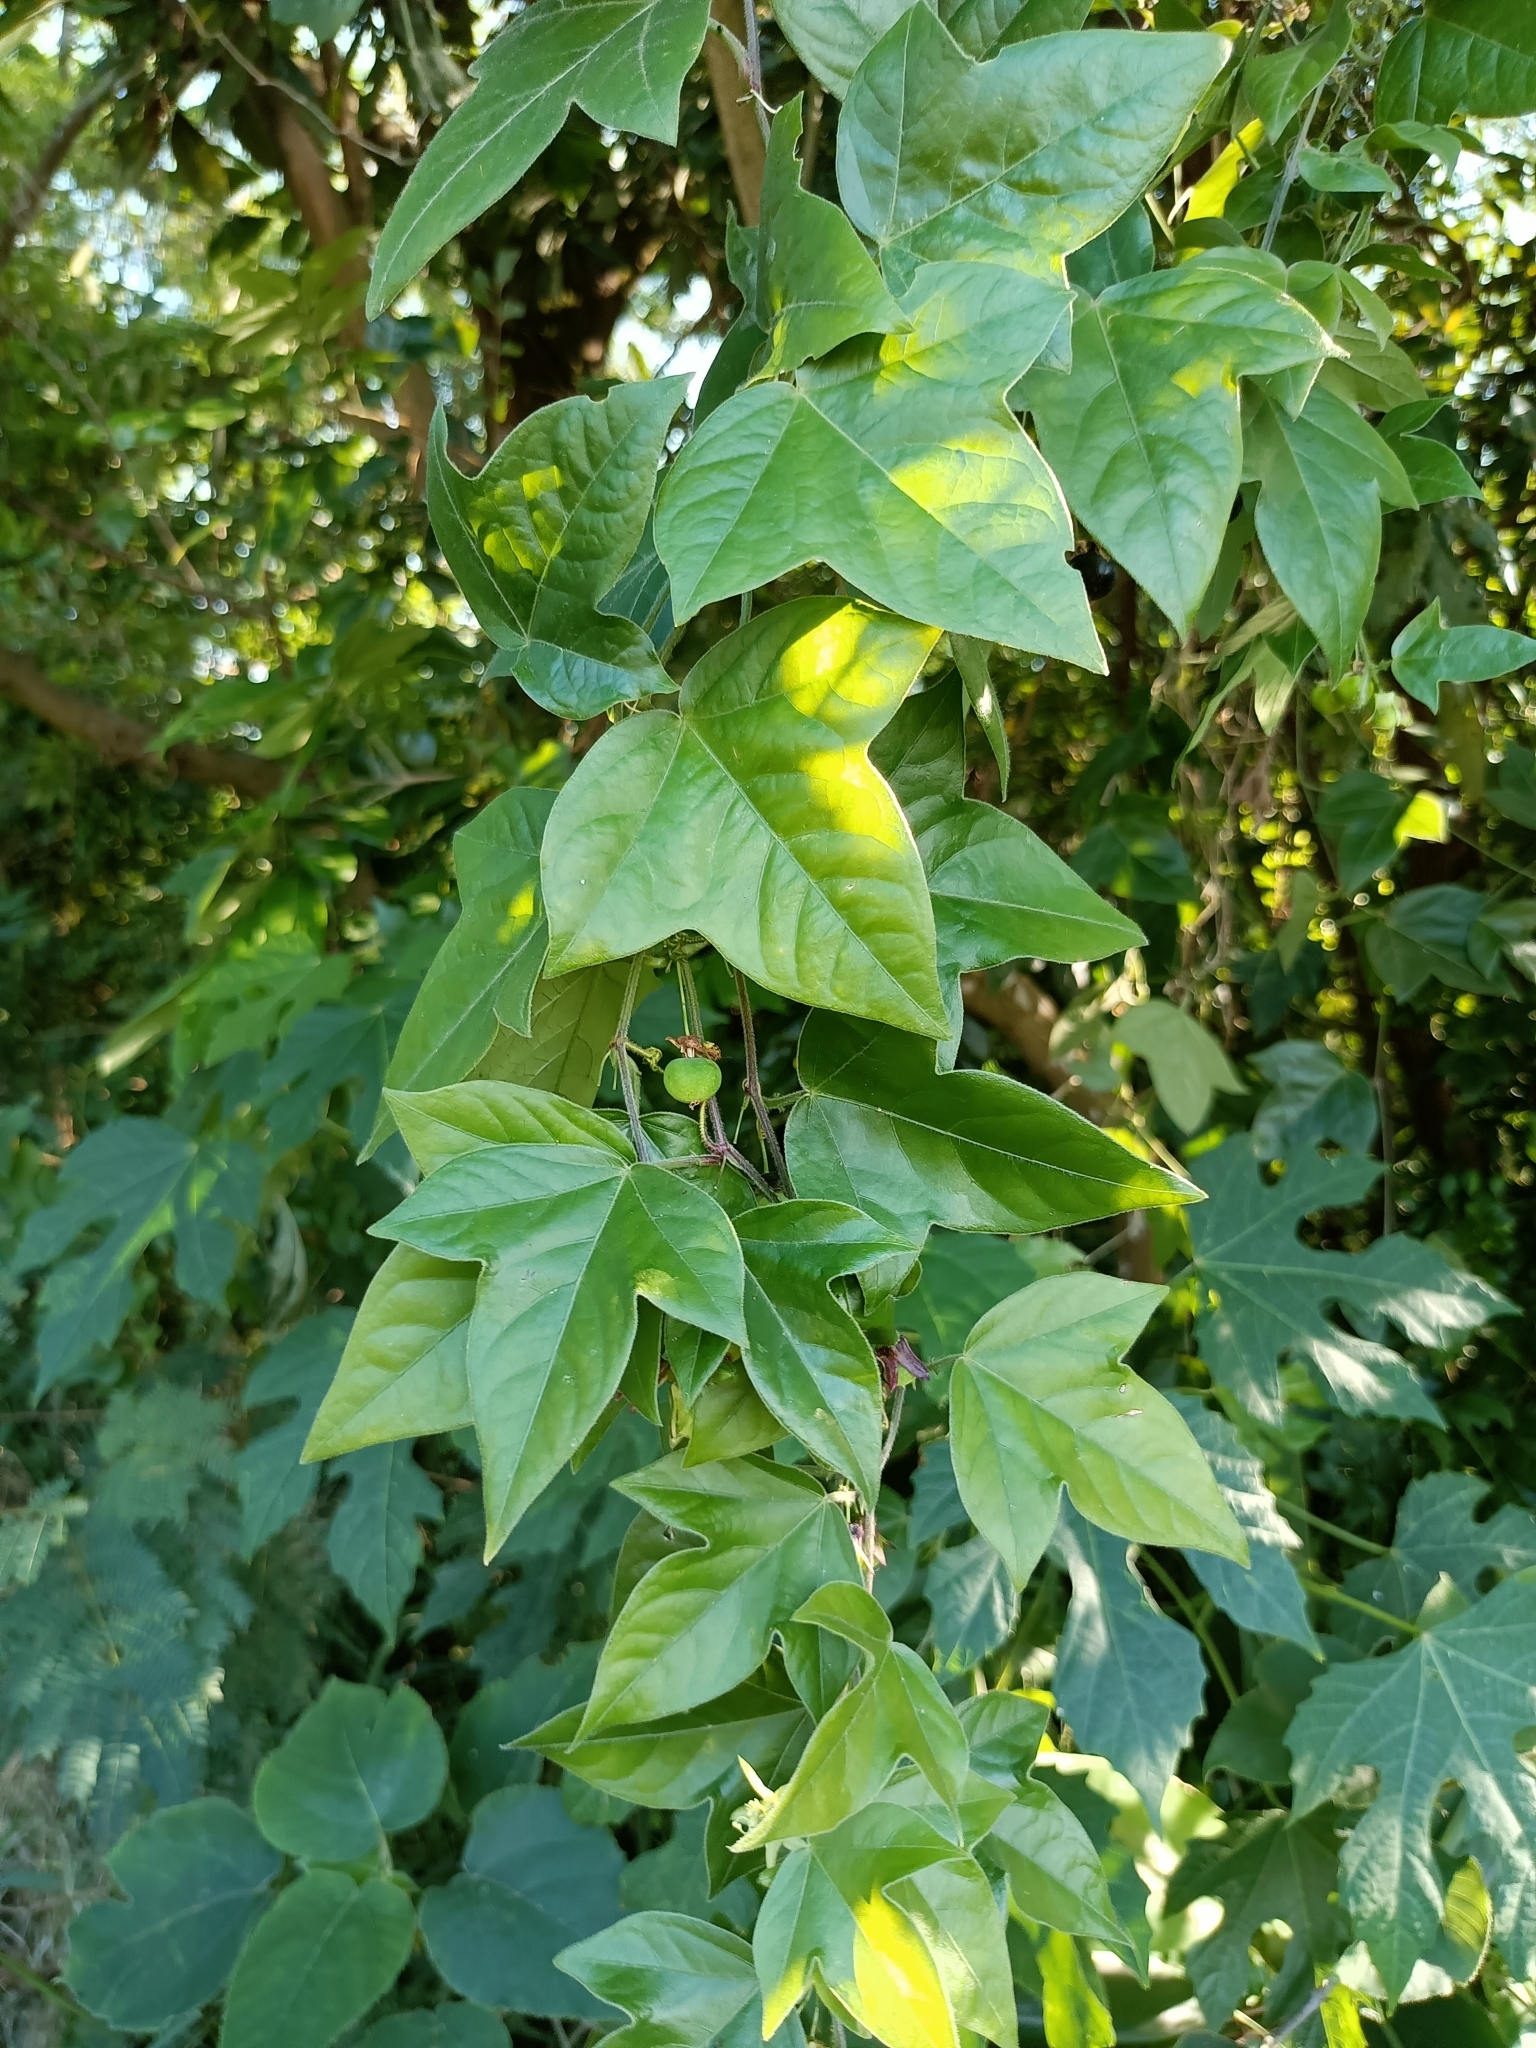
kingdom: Plantae
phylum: Tracheophyta
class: Magnoliopsida
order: Malpighiales
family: Passifloraceae
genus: Passiflora
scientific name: Passiflora suberosa
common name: Wild passionfruit
